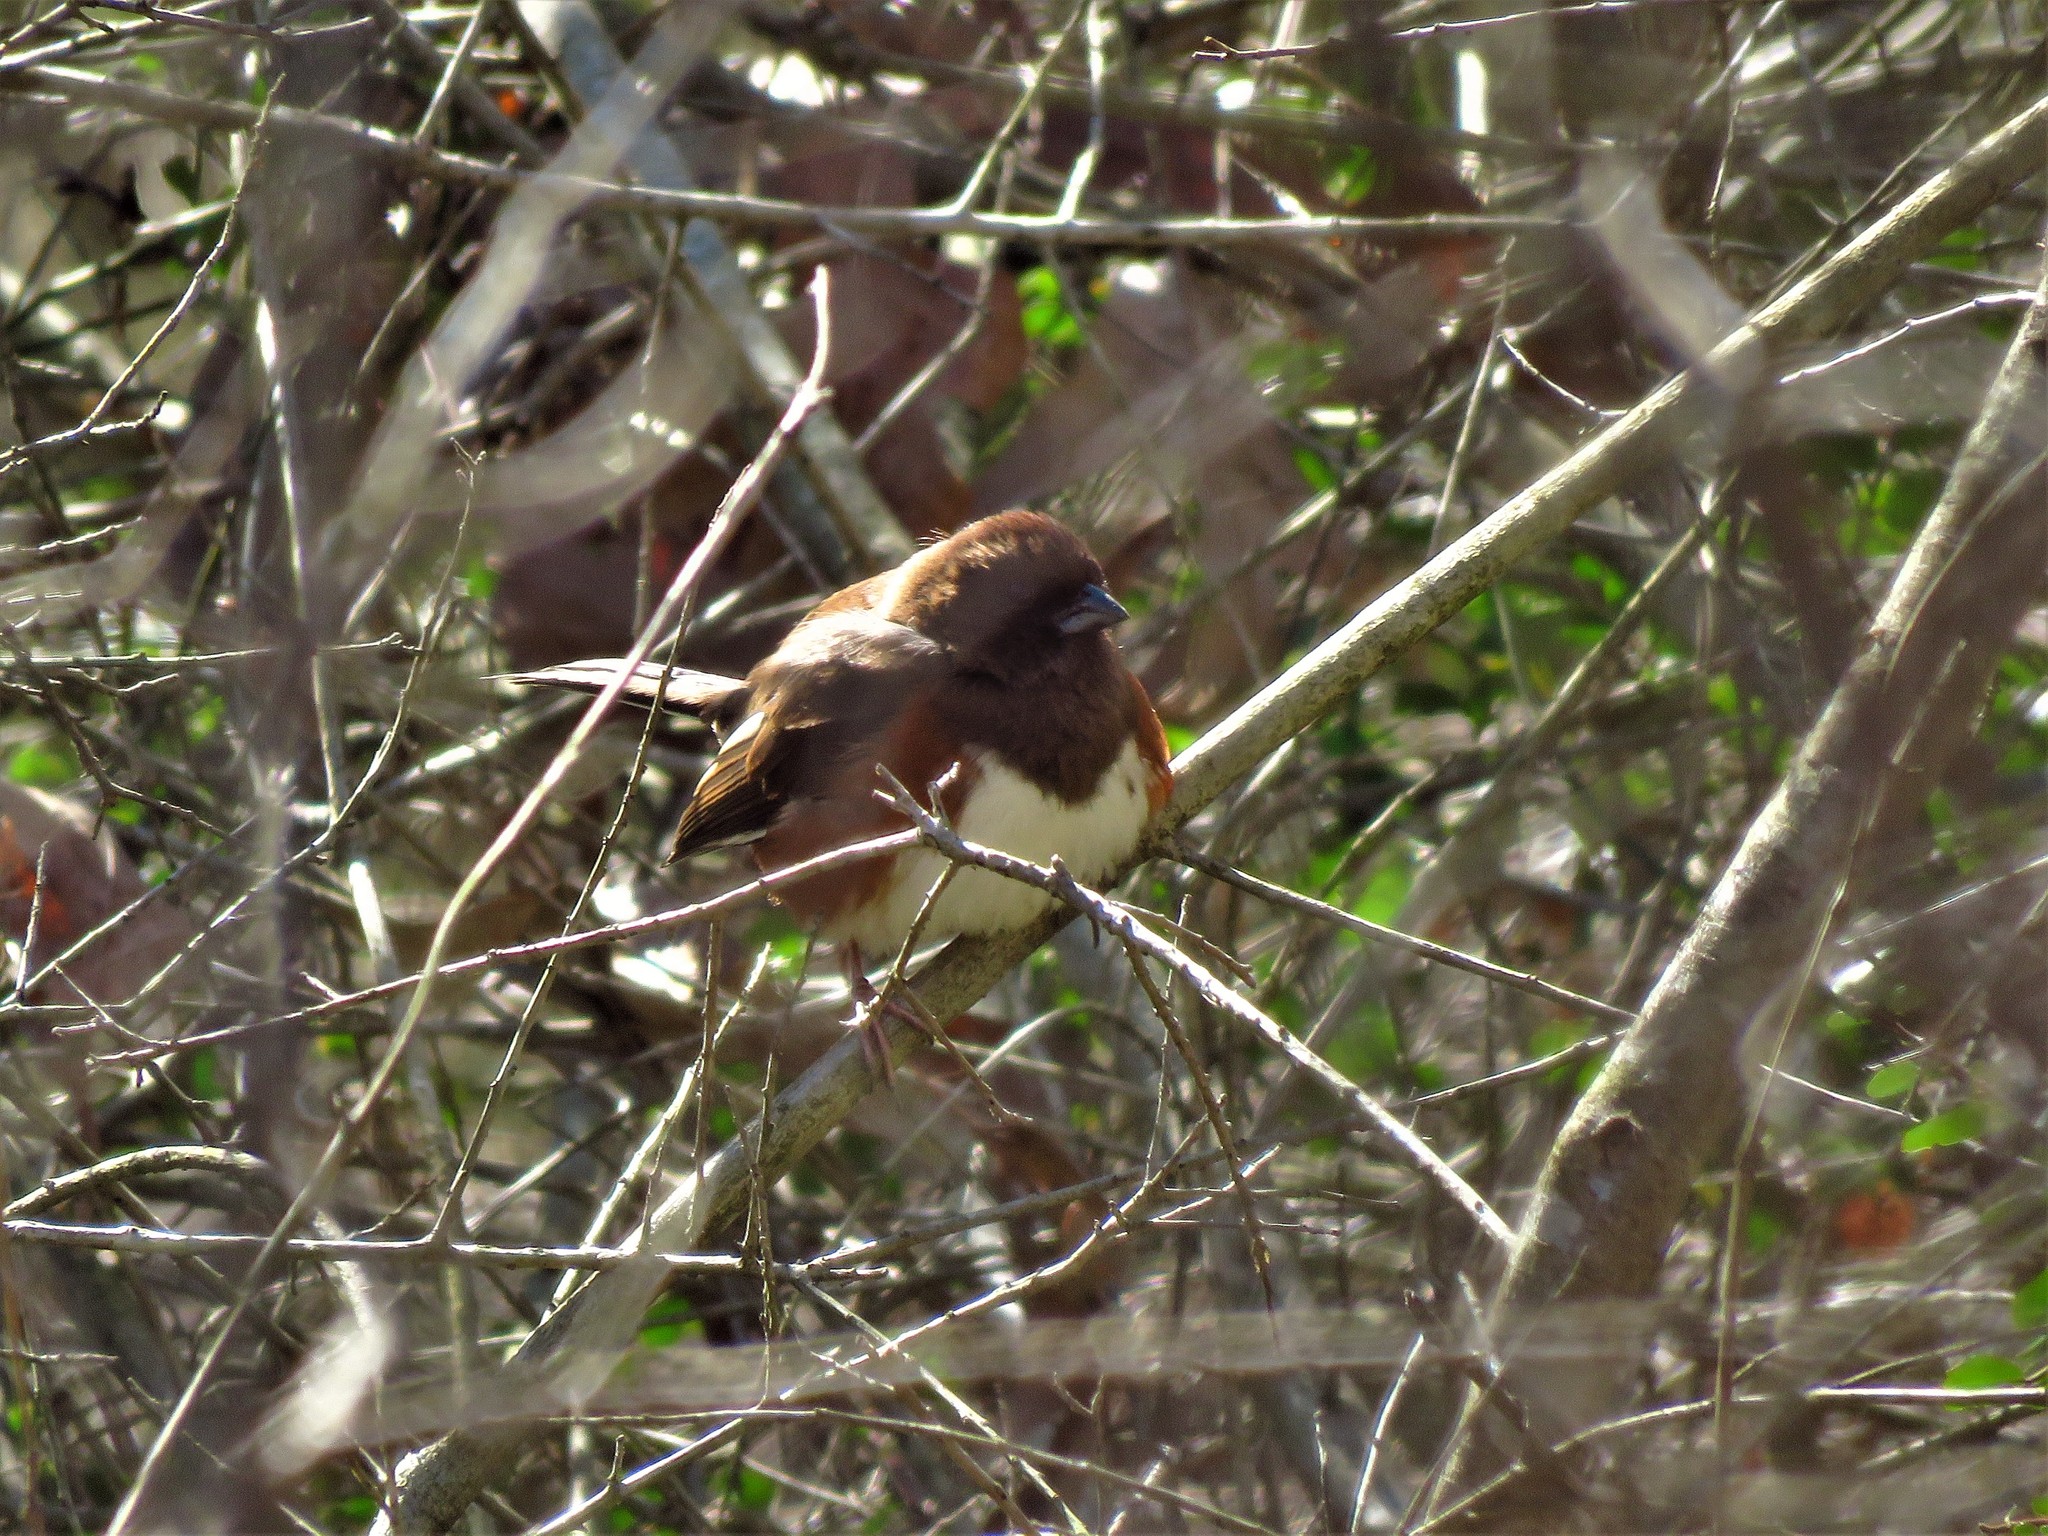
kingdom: Animalia
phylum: Chordata
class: Aves
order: Passeriformes
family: Passerellidae
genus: Pipilo
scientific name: Pipilo erythrophthalmus
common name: Eastern towhee
